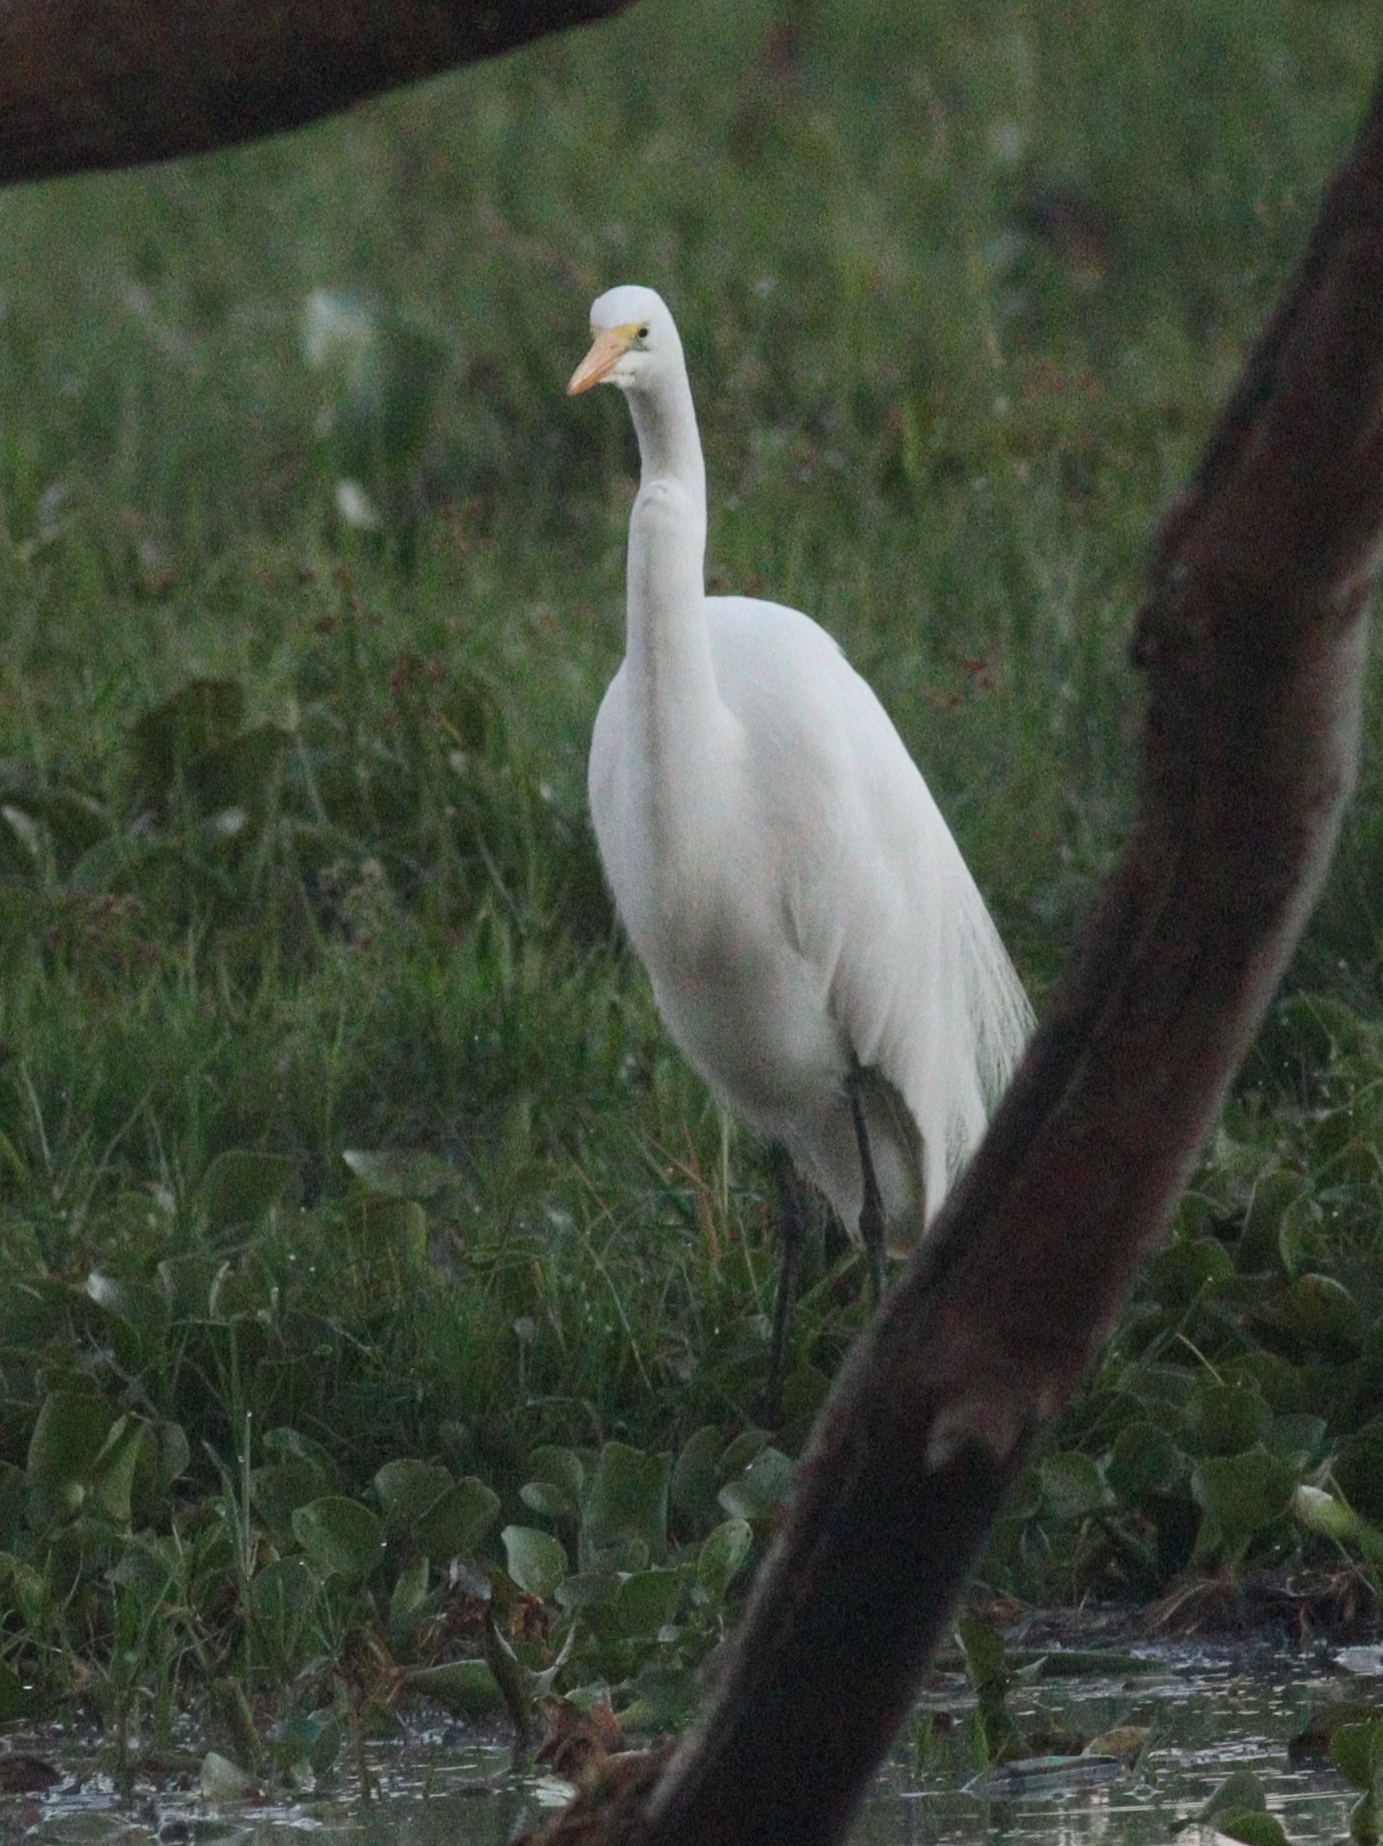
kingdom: Animalia
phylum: Chordata
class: Aves
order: Pelecaniformes
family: Ardeidae
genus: Ardea
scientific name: Ardea alba
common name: Great egret
